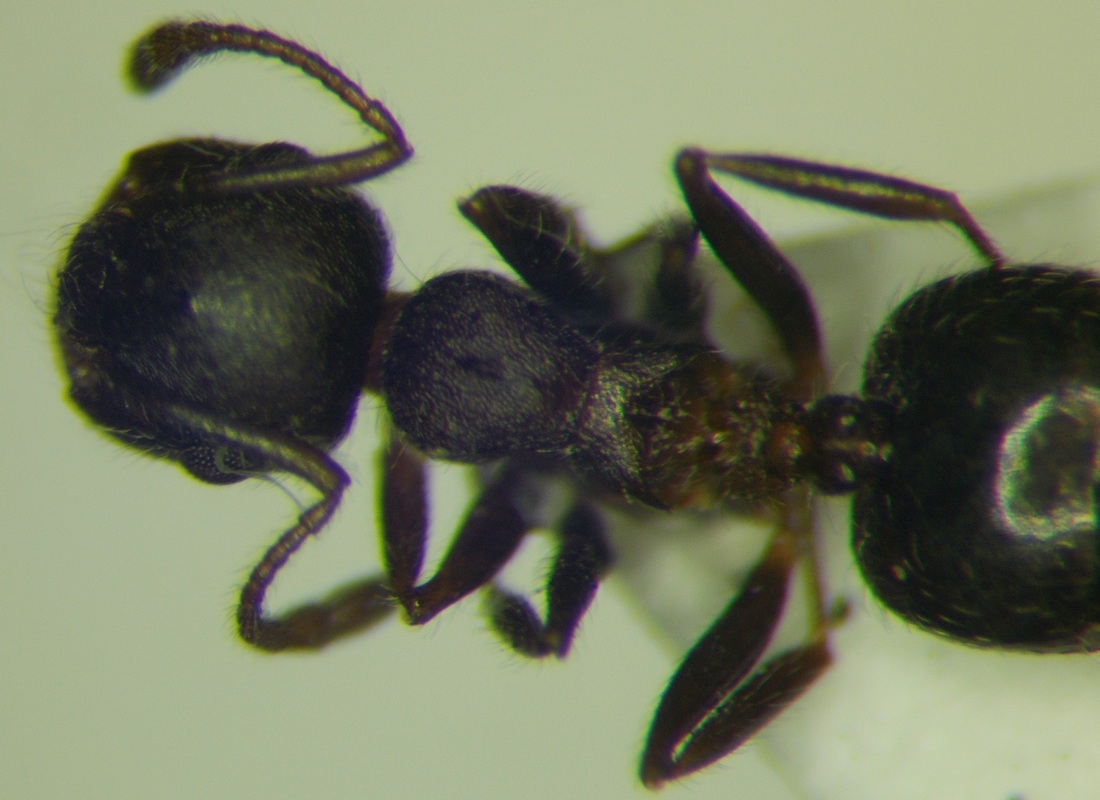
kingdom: Animalia
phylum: Arthropoda
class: Insecta
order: Hymenoptera
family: Formicidae
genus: Crematogaster
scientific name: Crematogaster opaca
